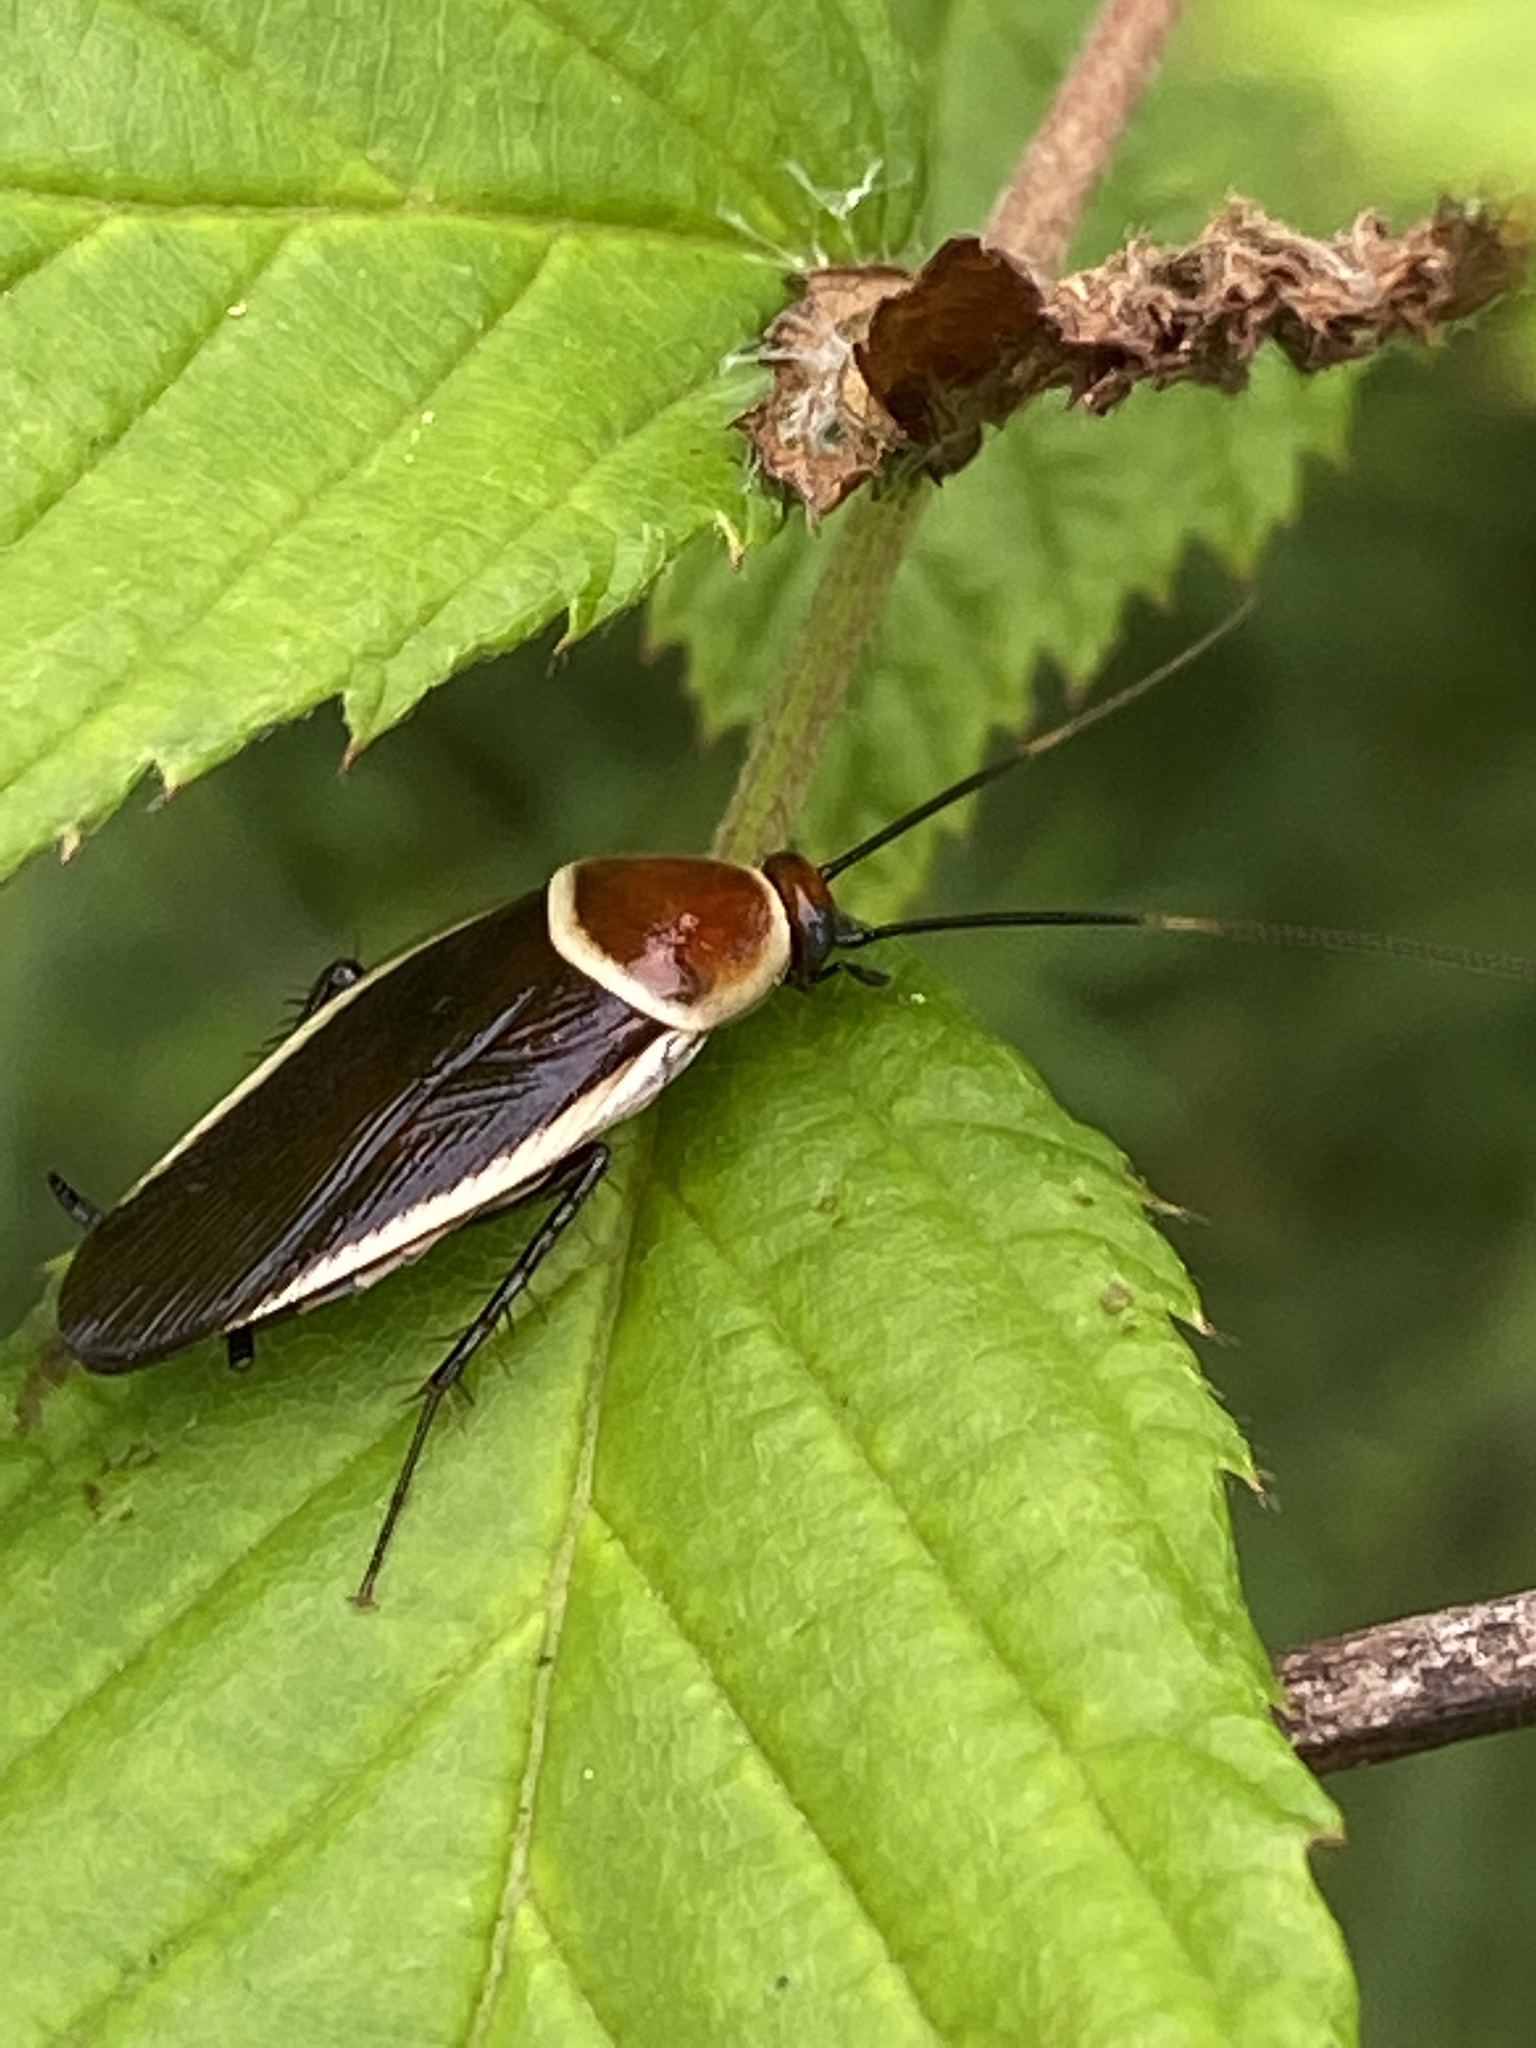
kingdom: Animalia
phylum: Arthropoda
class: Insecta
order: Blattodea
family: Ectobiidae
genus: Pseudomops
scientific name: Pseudomops septentrionalis
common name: Pale-bordered field cockroach
